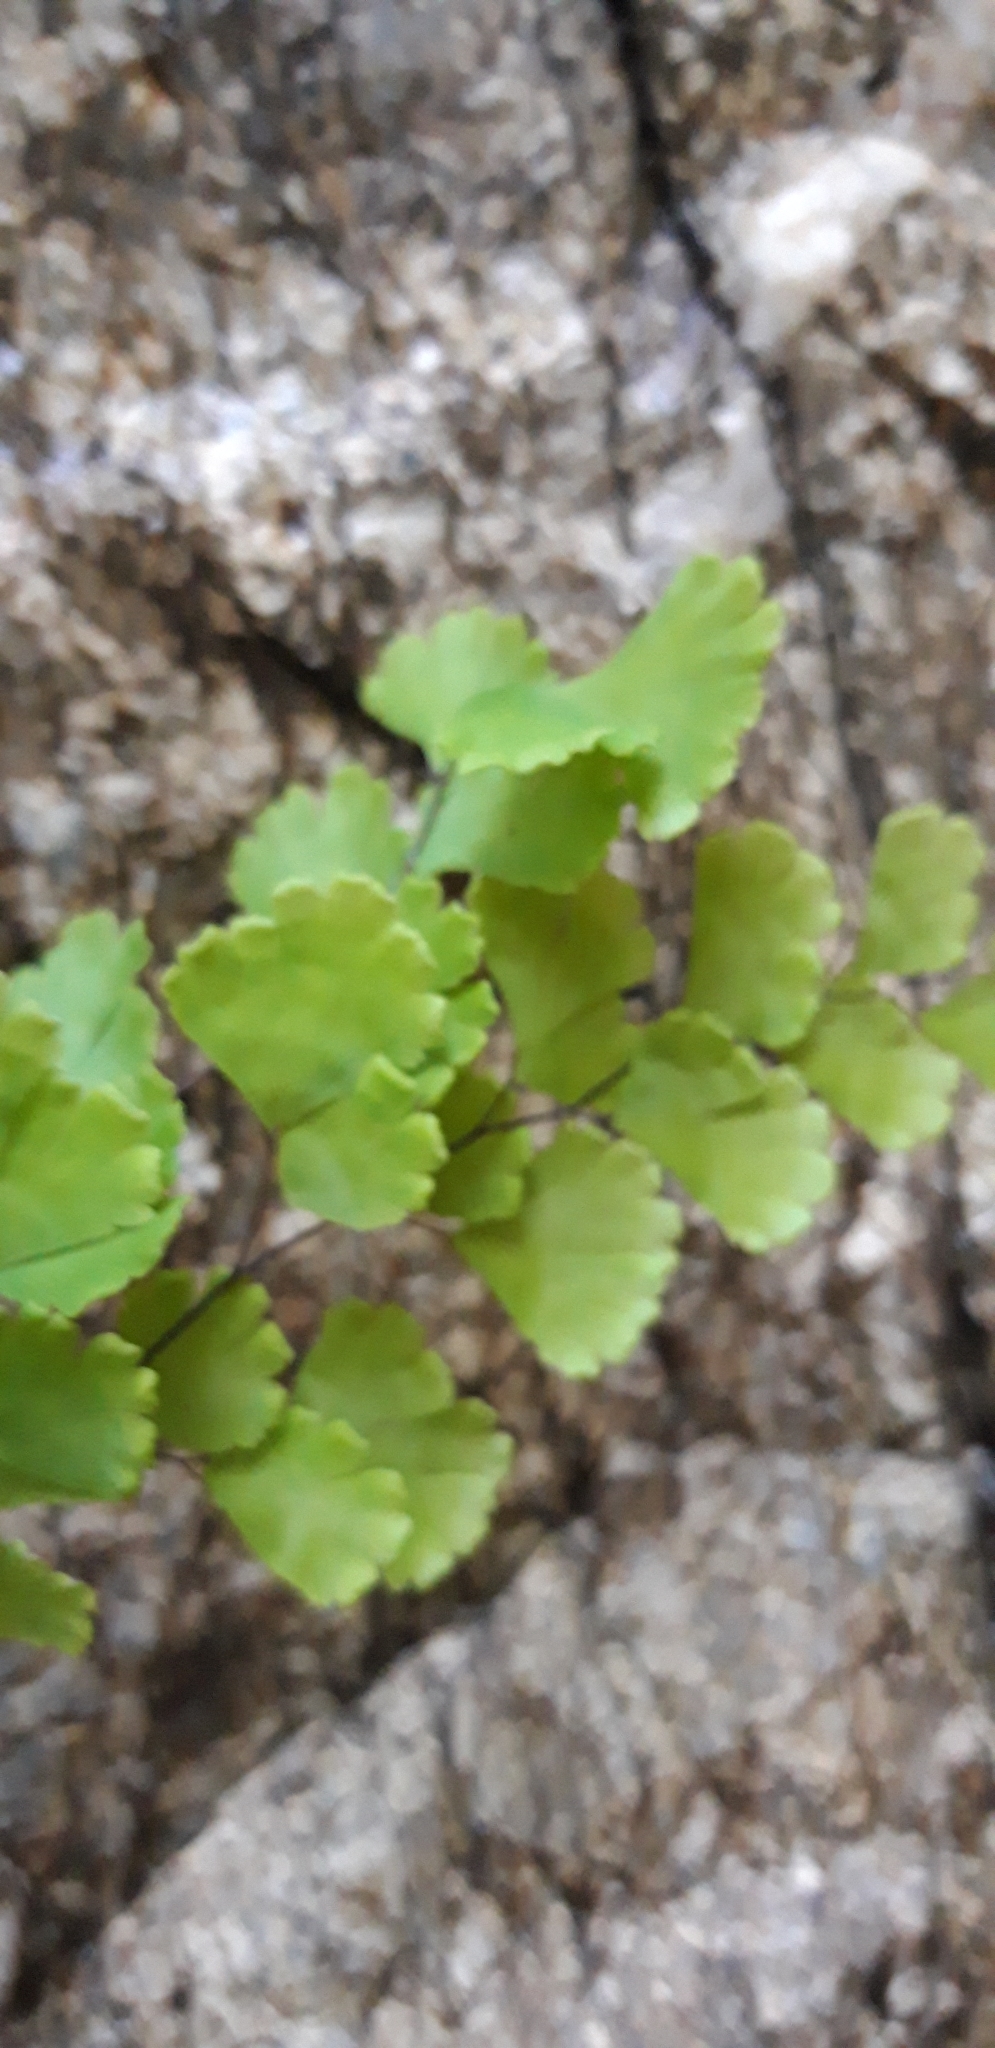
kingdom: Plantae
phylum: Tracheophyta
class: Polypodiopsida
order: Polypodiales
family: Pteridaceae
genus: Adiantum
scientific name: Adiantum capillus-veneris
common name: Maidenhair fern
